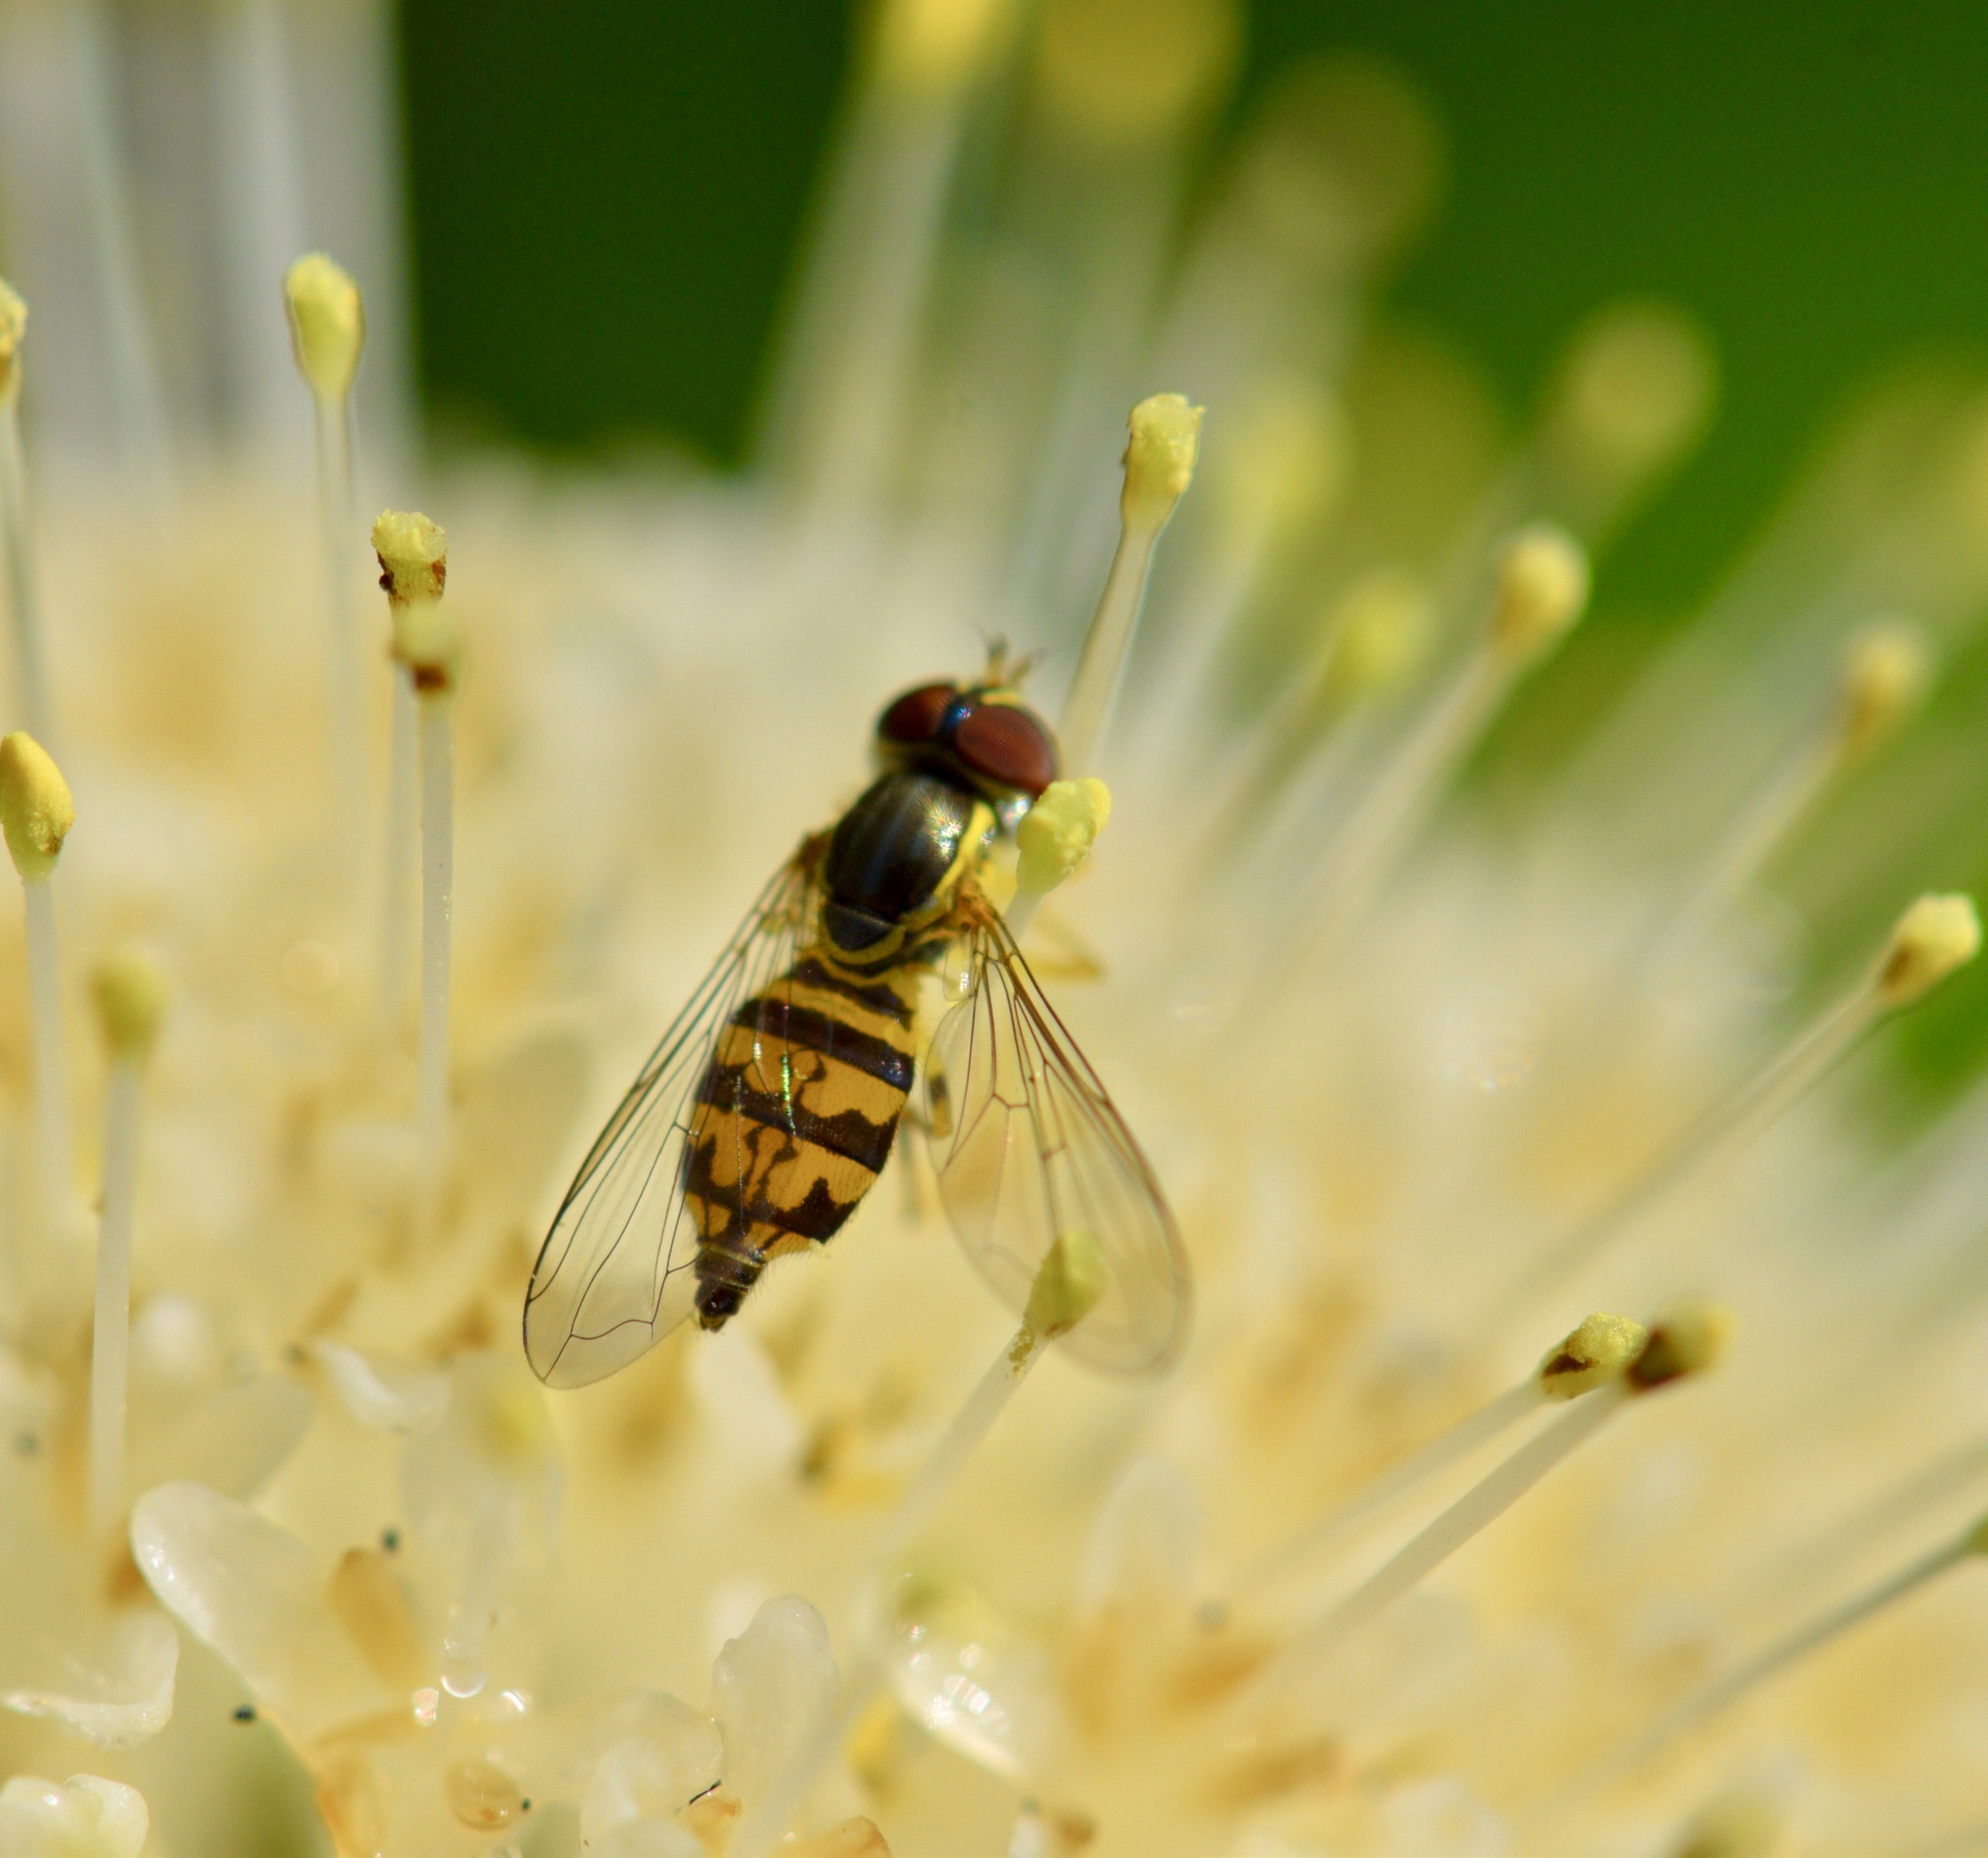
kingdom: Animalia
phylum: Arthropoda
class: Insecta
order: Diptera
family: Syrphidae
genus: Toxomerus
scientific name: Toxomerus geminatus
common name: Eastern calligrapher
